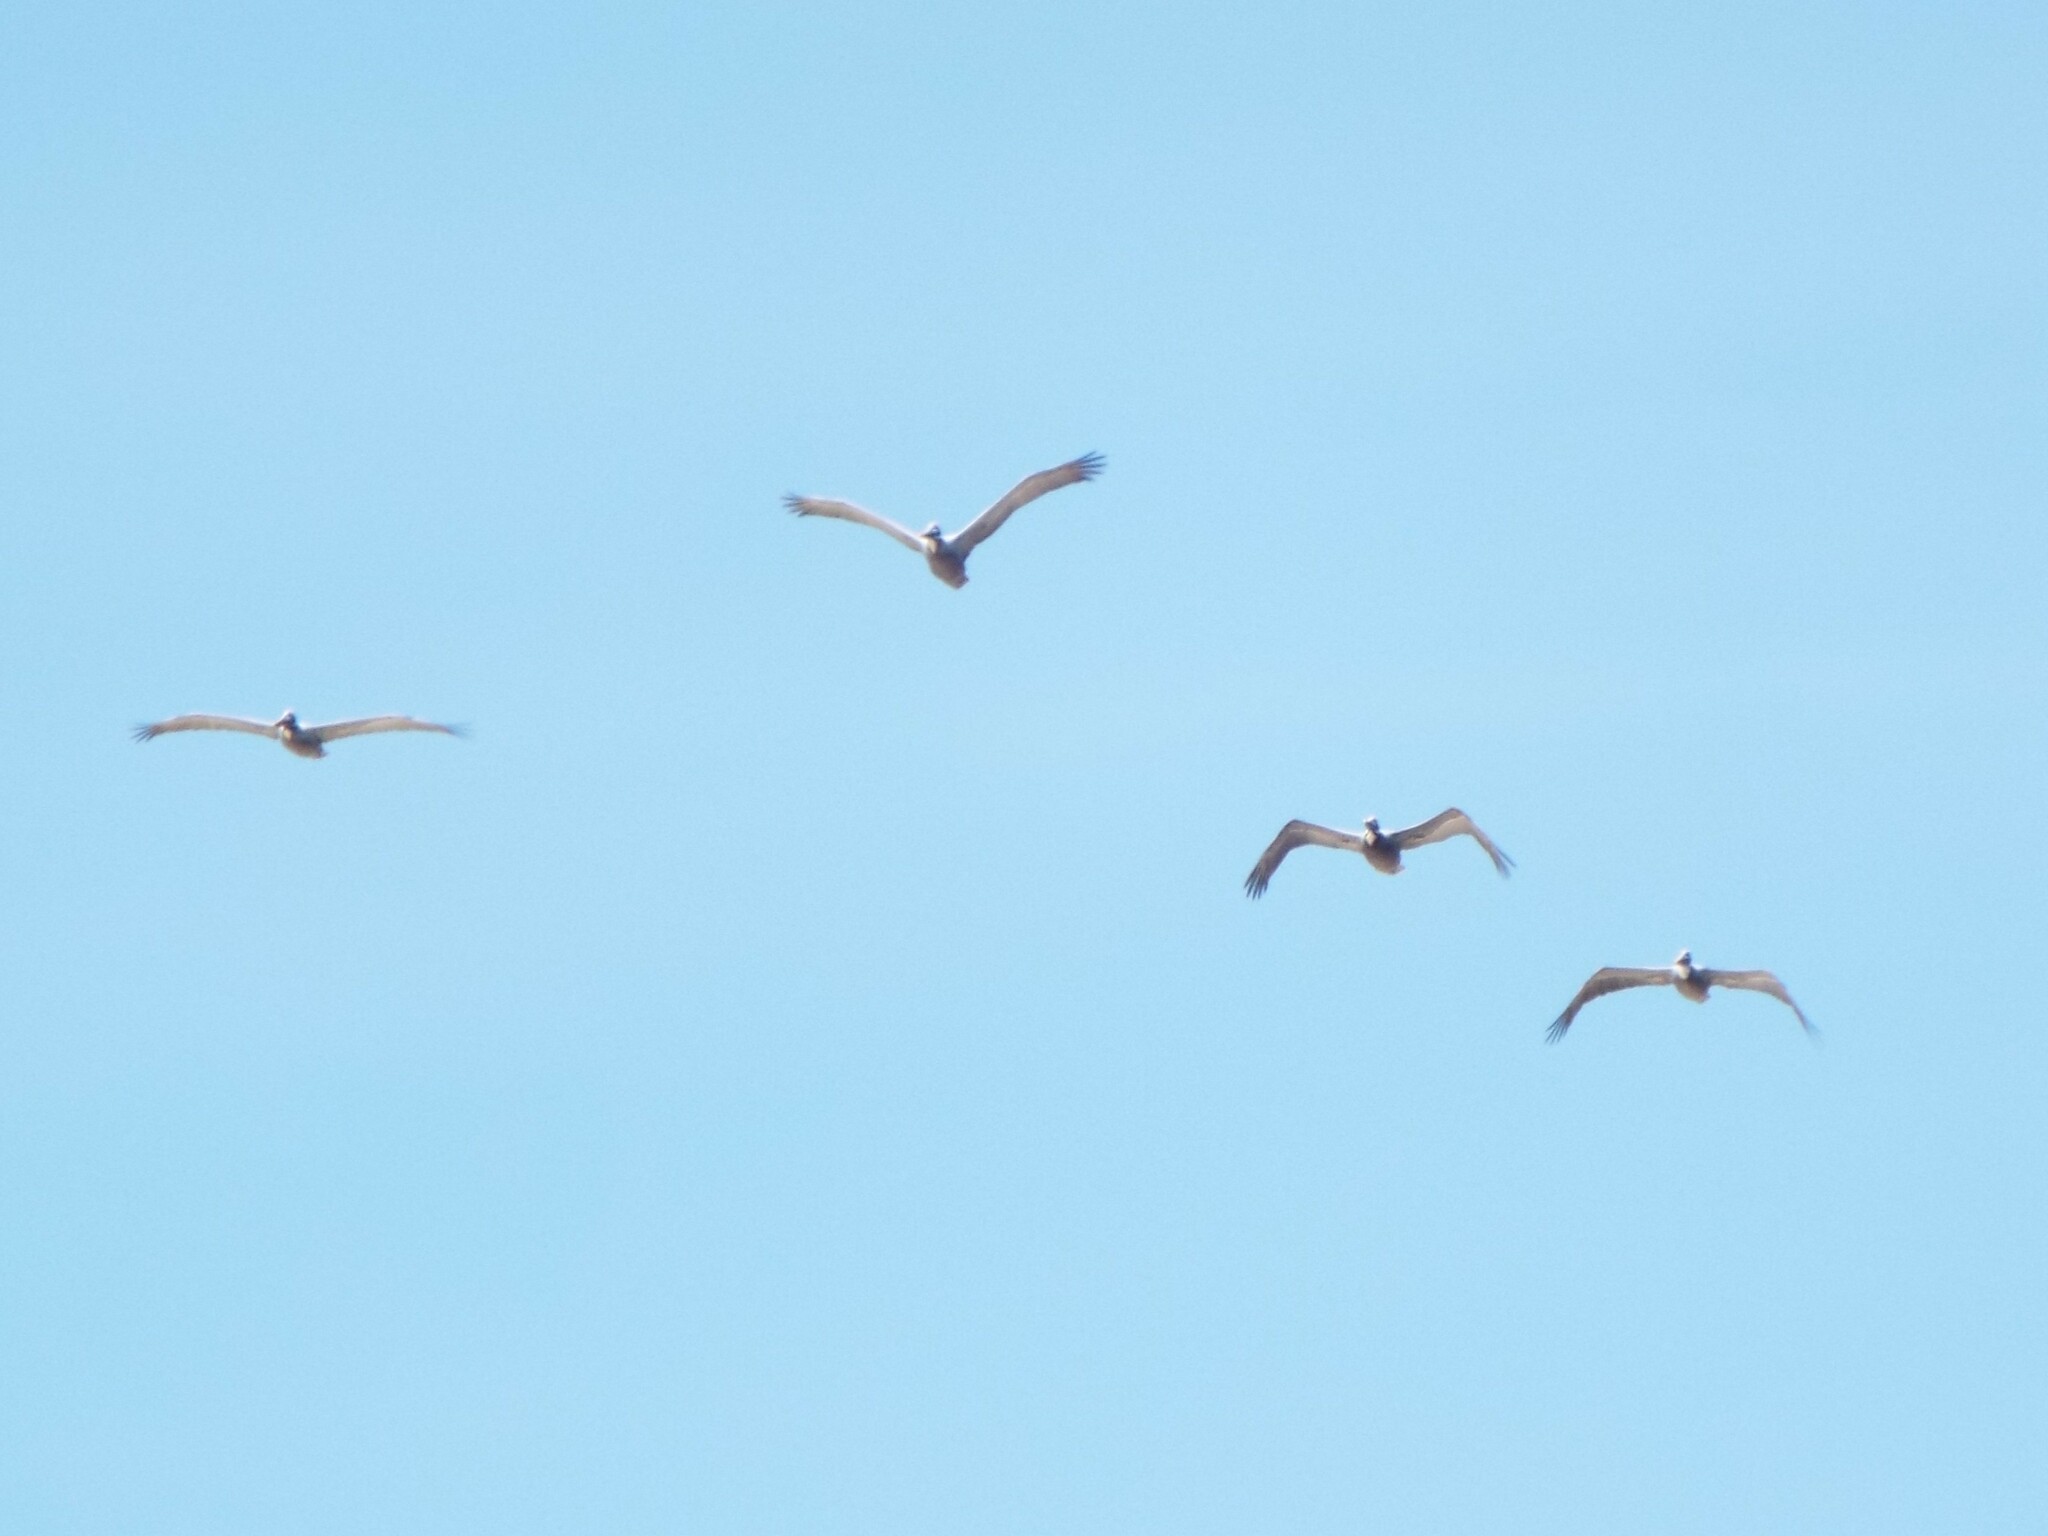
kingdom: Animalia
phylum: Chordata
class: Aves
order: Pelecaniformes
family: Pelecanidae
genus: Pelecanus
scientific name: Pelecanus occidentalis
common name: Brown pelican
